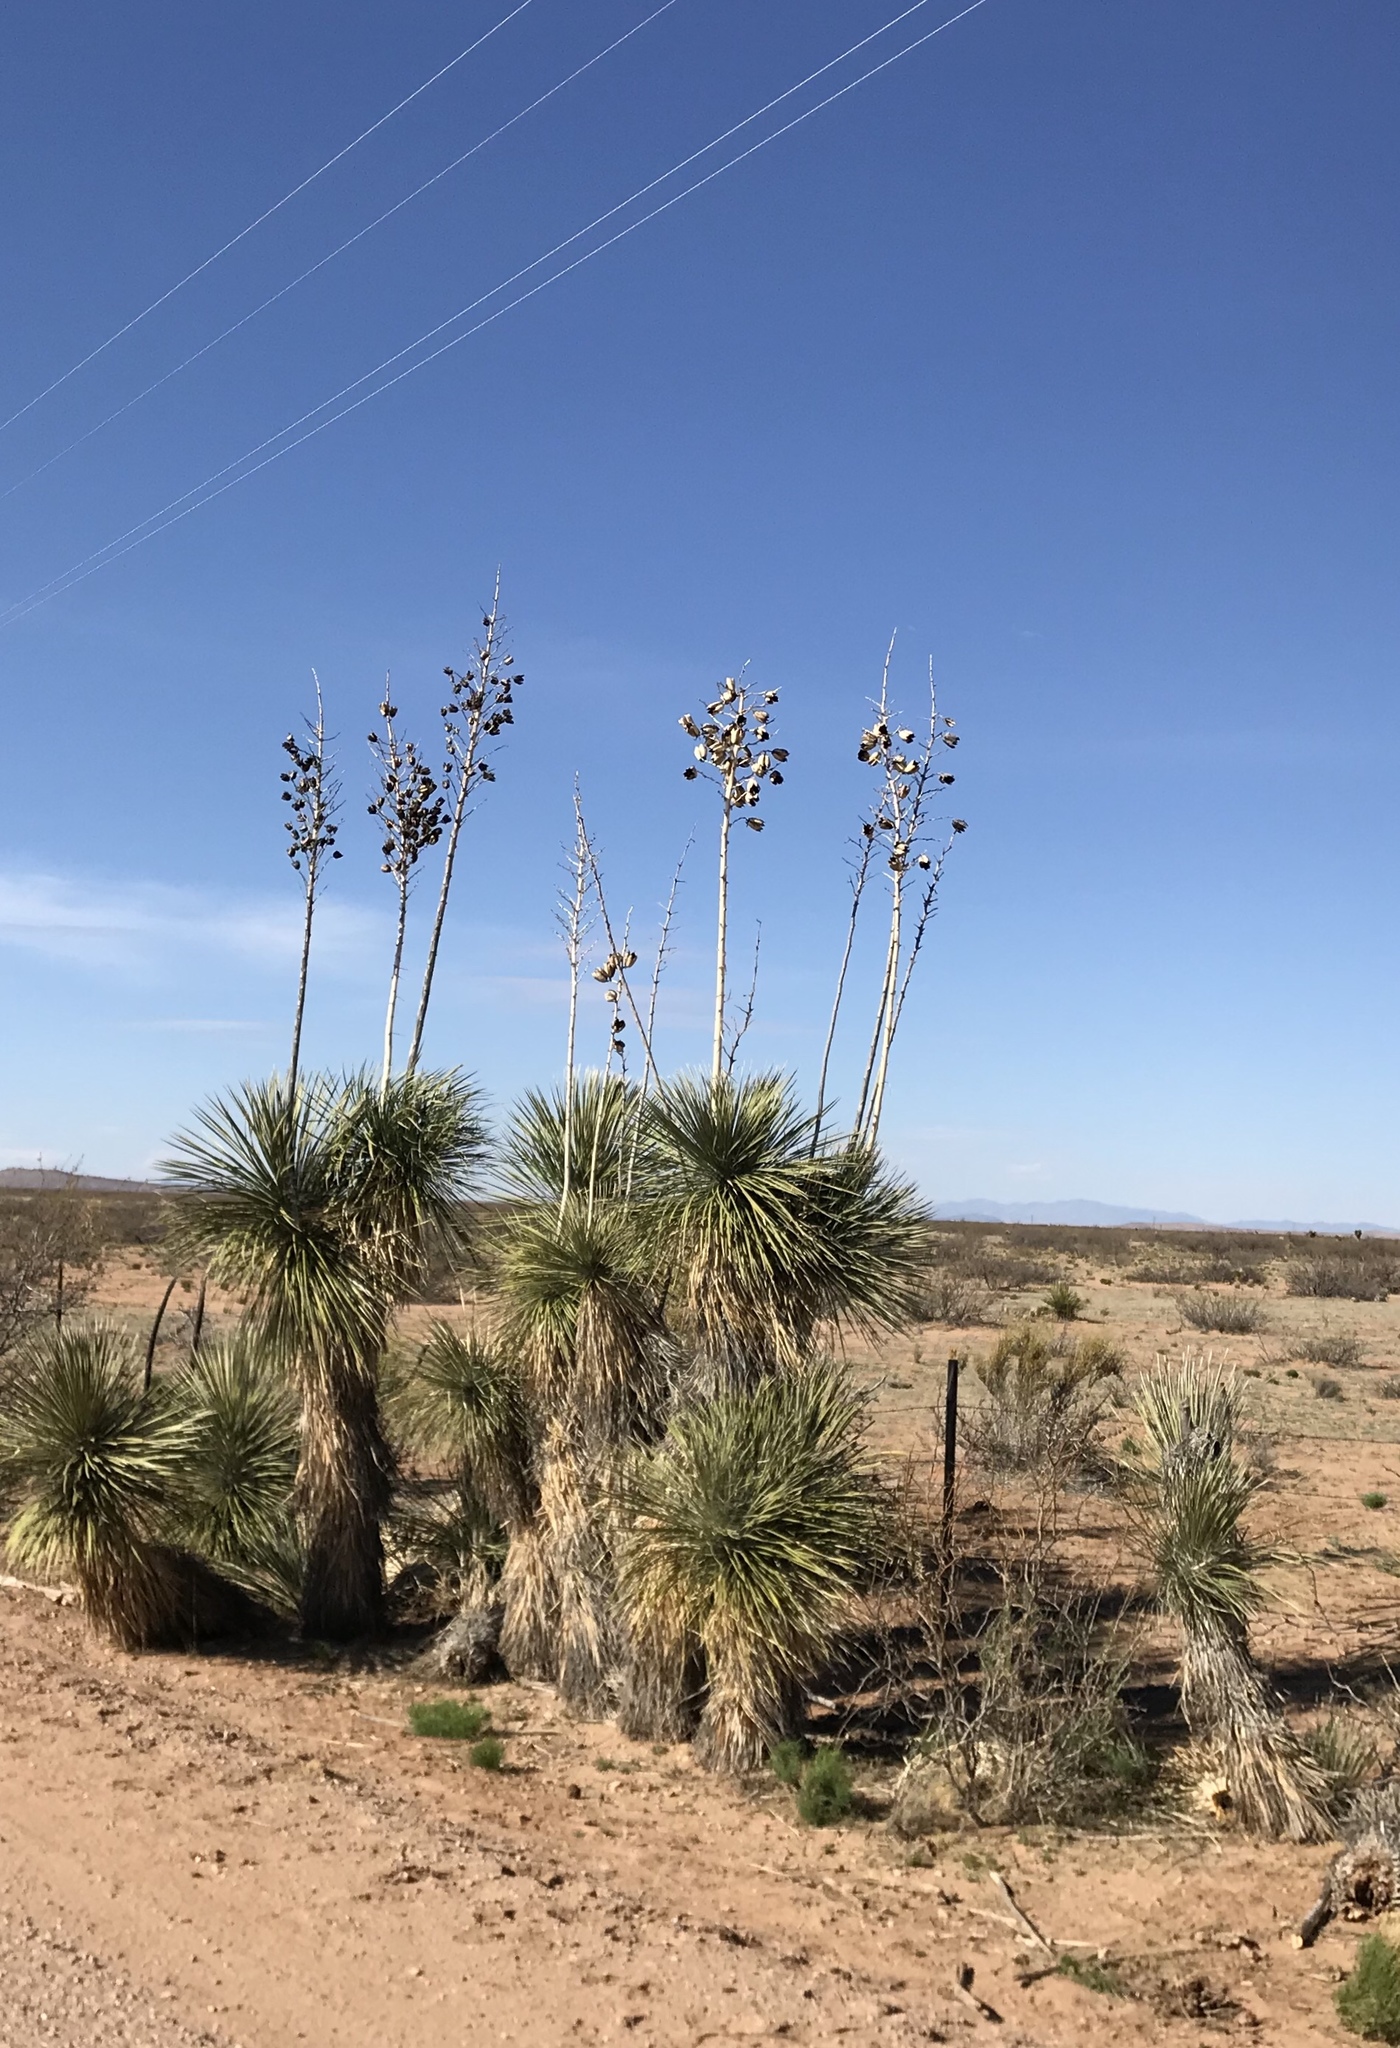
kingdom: Plantae
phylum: Tracheophyta
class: Liliopsida
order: Asparagales
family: Asparagaceae
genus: Yucca
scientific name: Yucca elata
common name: Palmella
